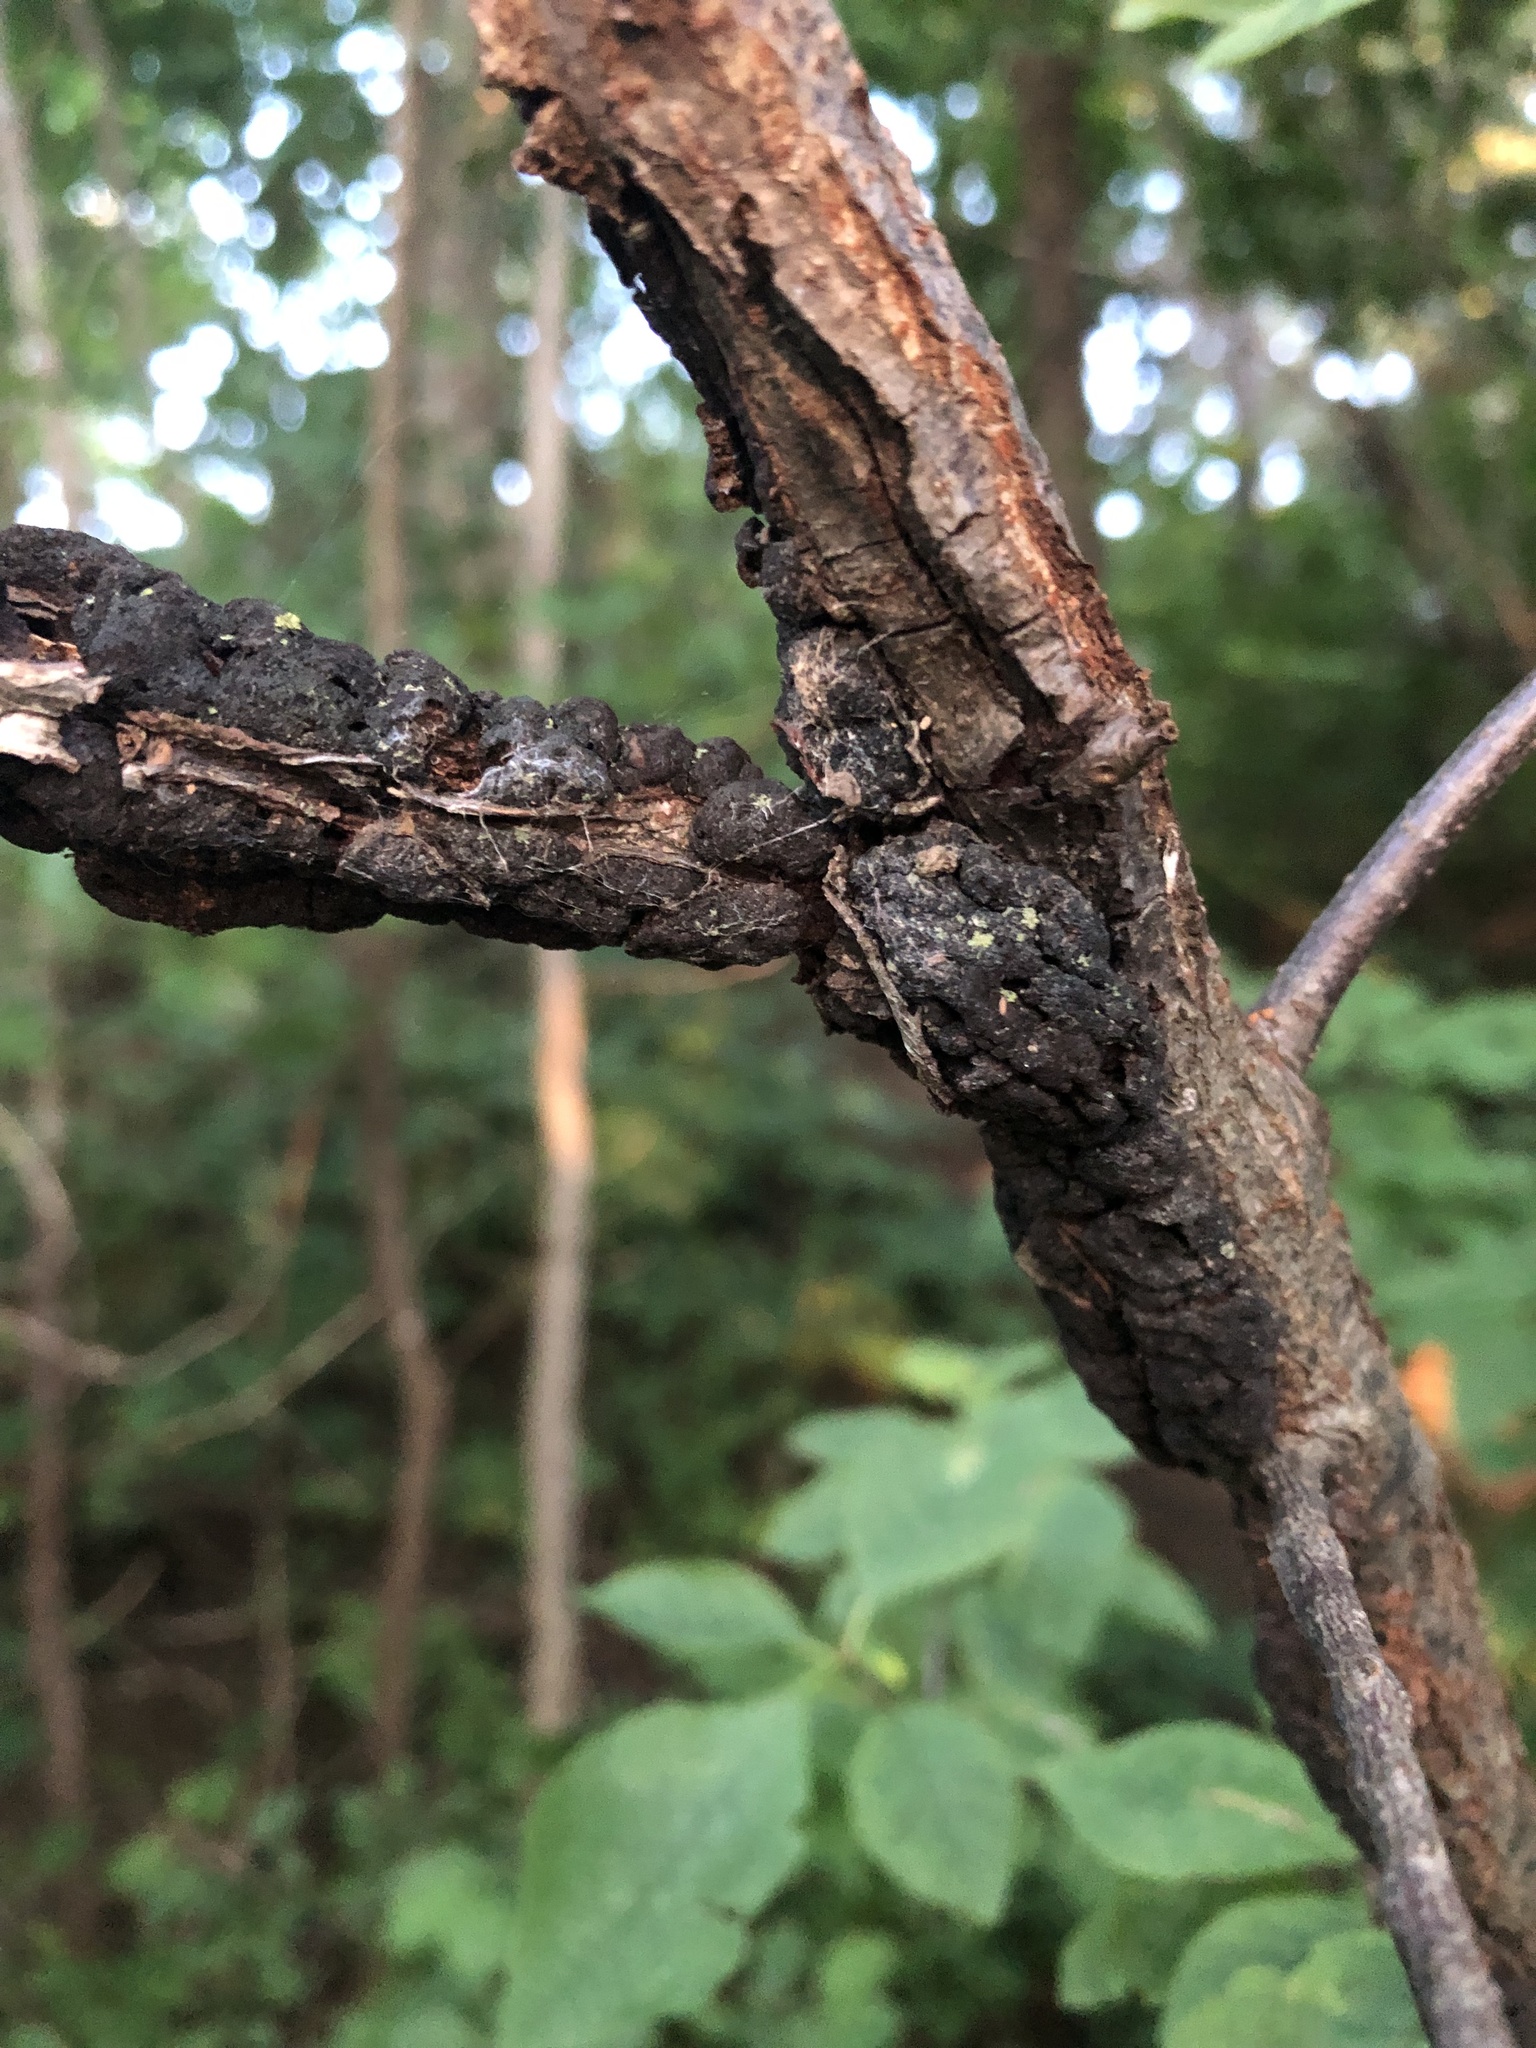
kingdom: Fungi
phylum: Ascomycota
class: Dothideomycetes
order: Venturiales
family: Venturiaceae
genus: Apiosporina
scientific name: Apiosporina morbosa
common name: Black knot
